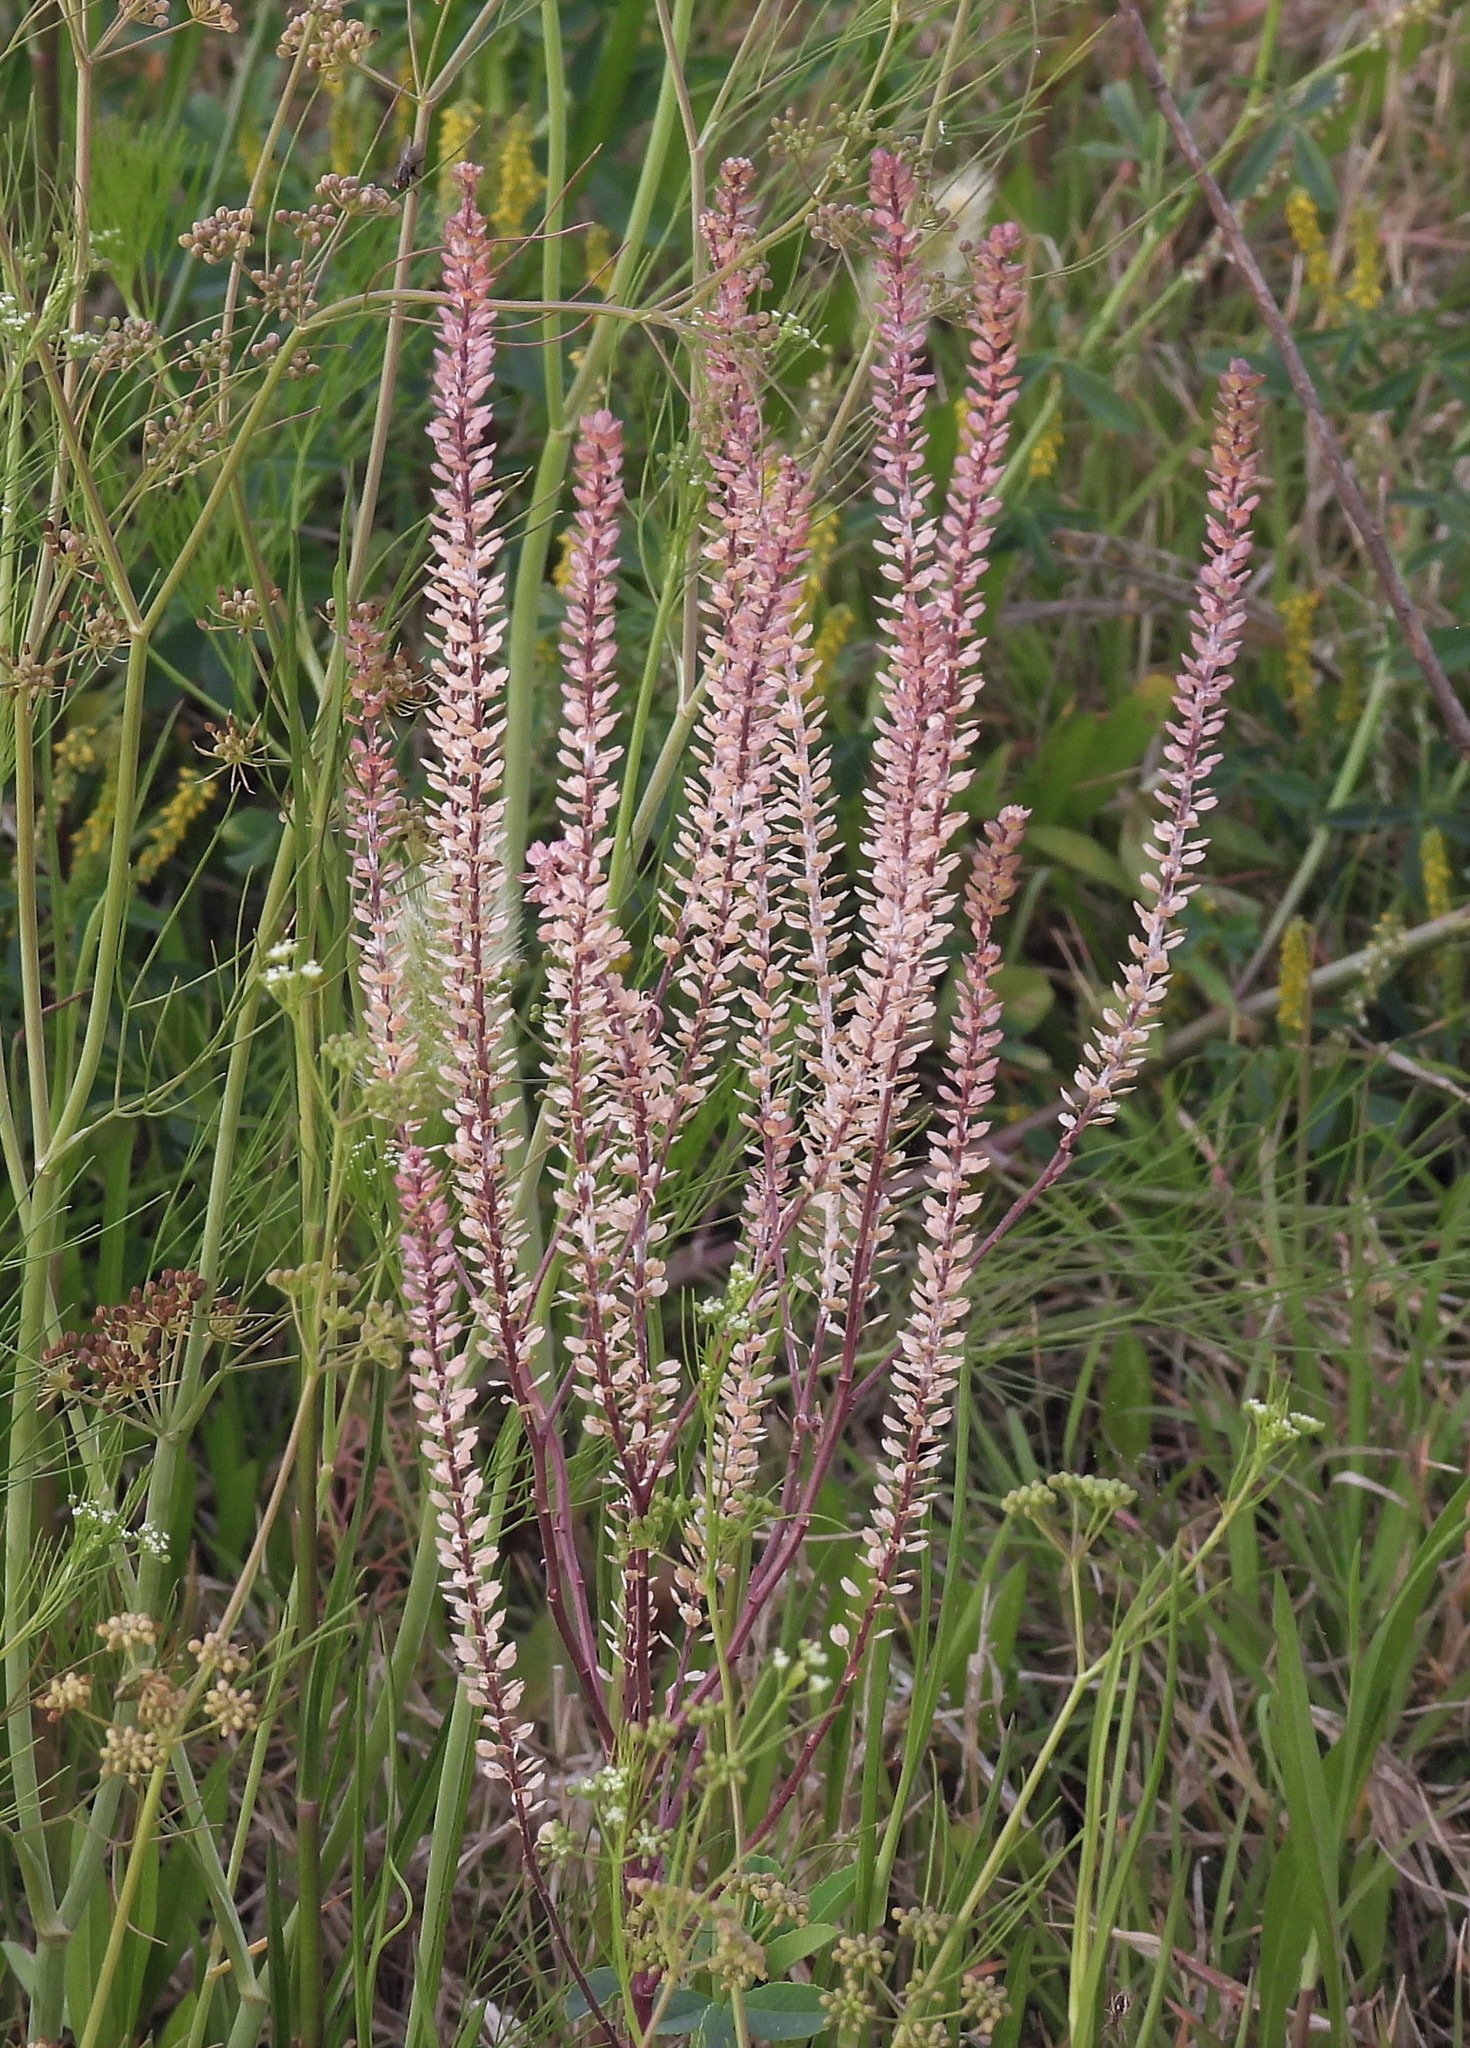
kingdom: Plantae
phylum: Tracheophyta
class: Magnoliopsida
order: Brassicales
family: Brassicaceae
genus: Lepidium
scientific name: Lepidium auriculatum
